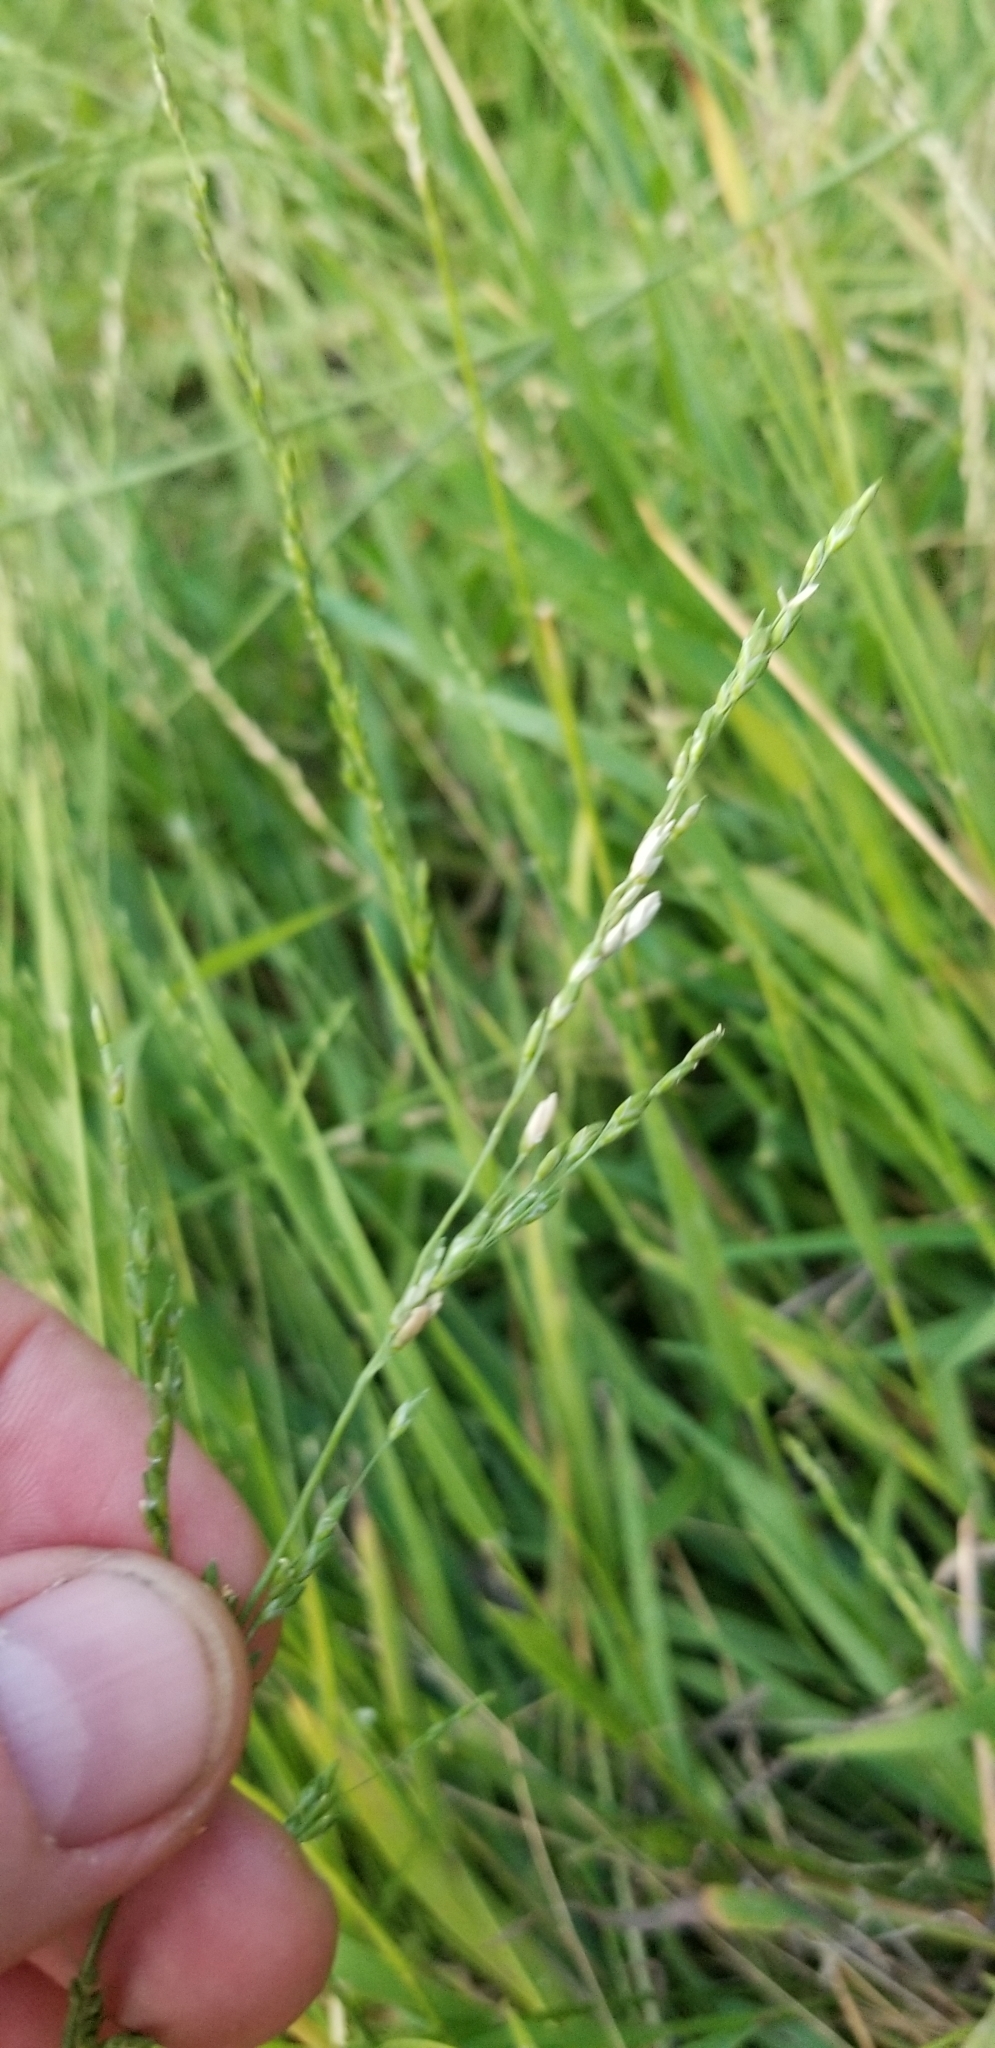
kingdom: Plantae
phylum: Tracheophyta
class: Liliopsida
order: Poales
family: Poaceae
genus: Ehrharta
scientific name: Ehrharta erecta
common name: Panic veldtgrass
